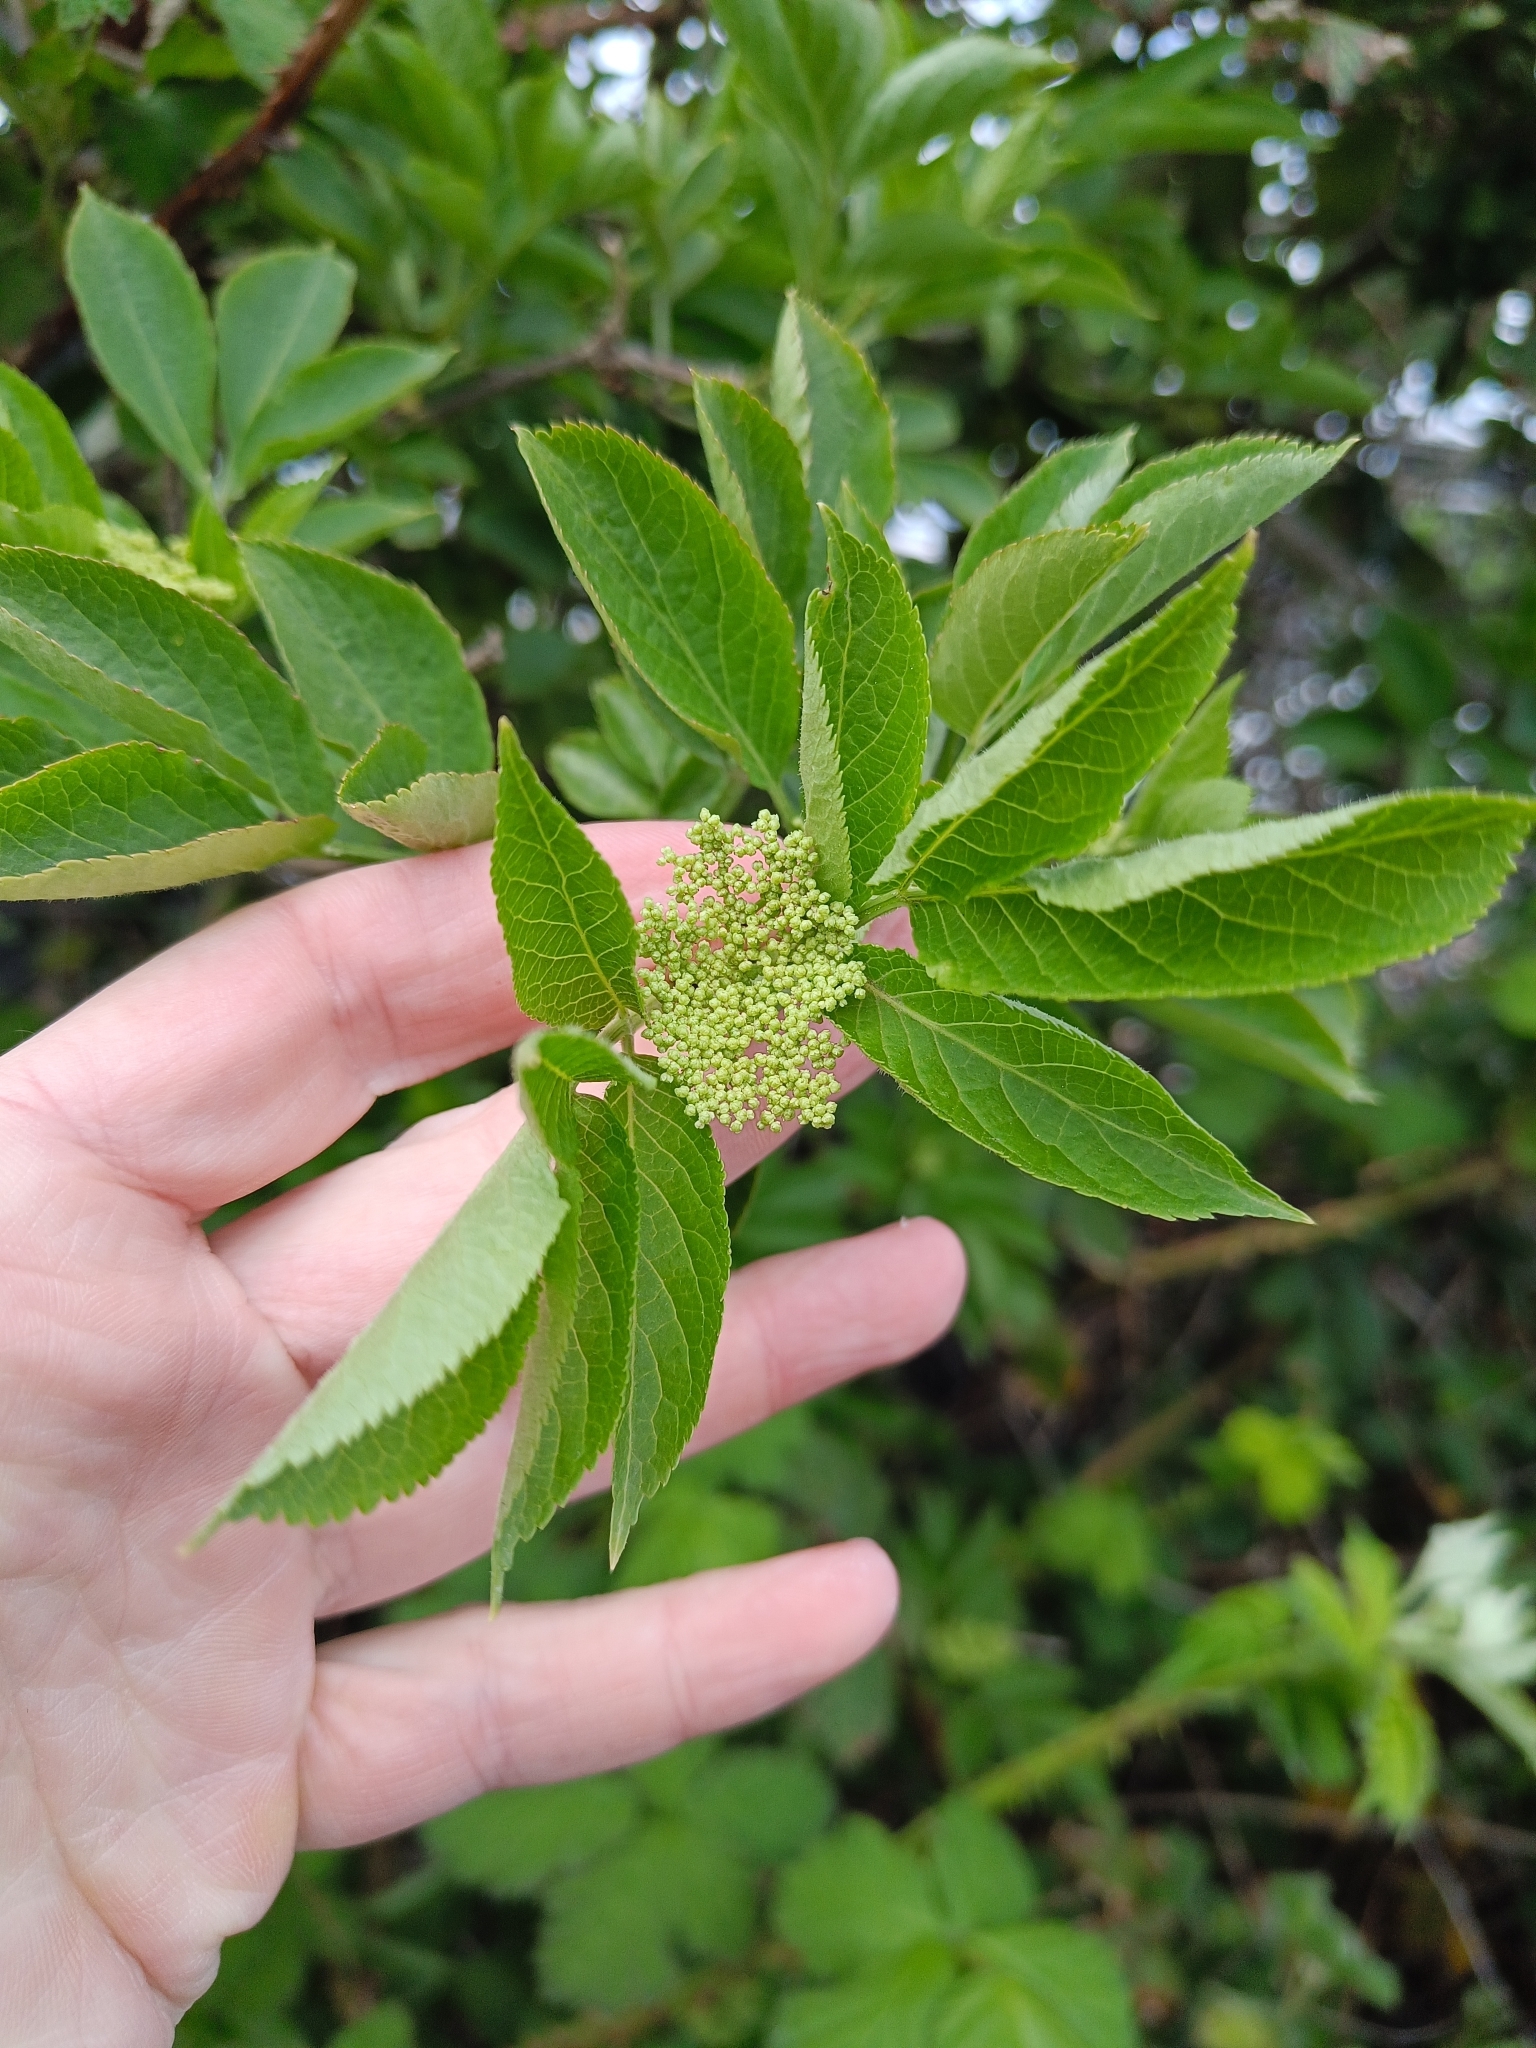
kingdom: Plantae
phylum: Tracheophyta
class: Magnoliopsida
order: Dipsacales
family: Viburnaceae
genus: Sambucus
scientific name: Sambucus nigra
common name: Elder
